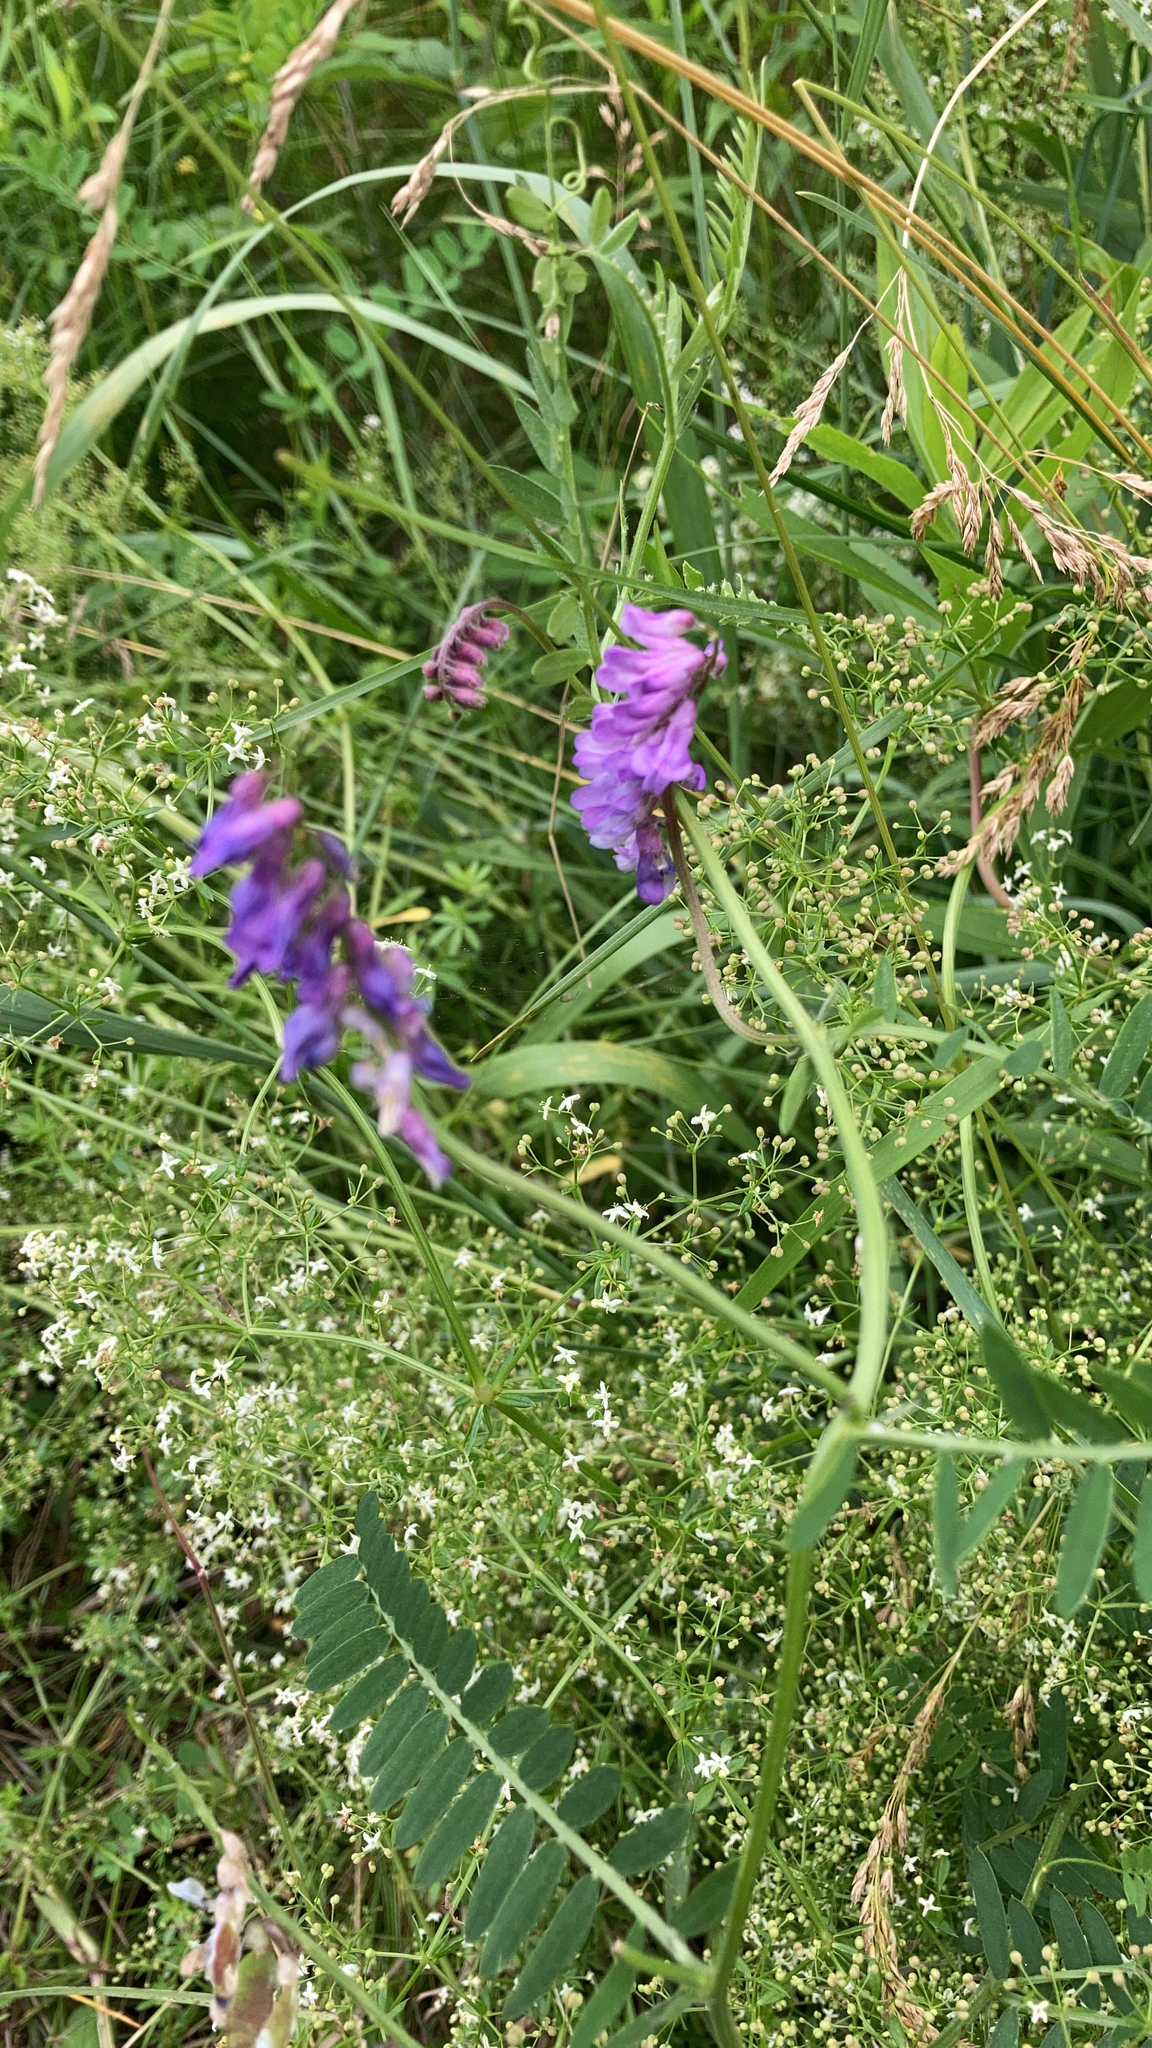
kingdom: Plantae
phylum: Tracheophyta
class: Magnoliopsida
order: Fabales
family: Fabaceae
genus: Vicia
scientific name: Vicia cracca
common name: Bird vetch
